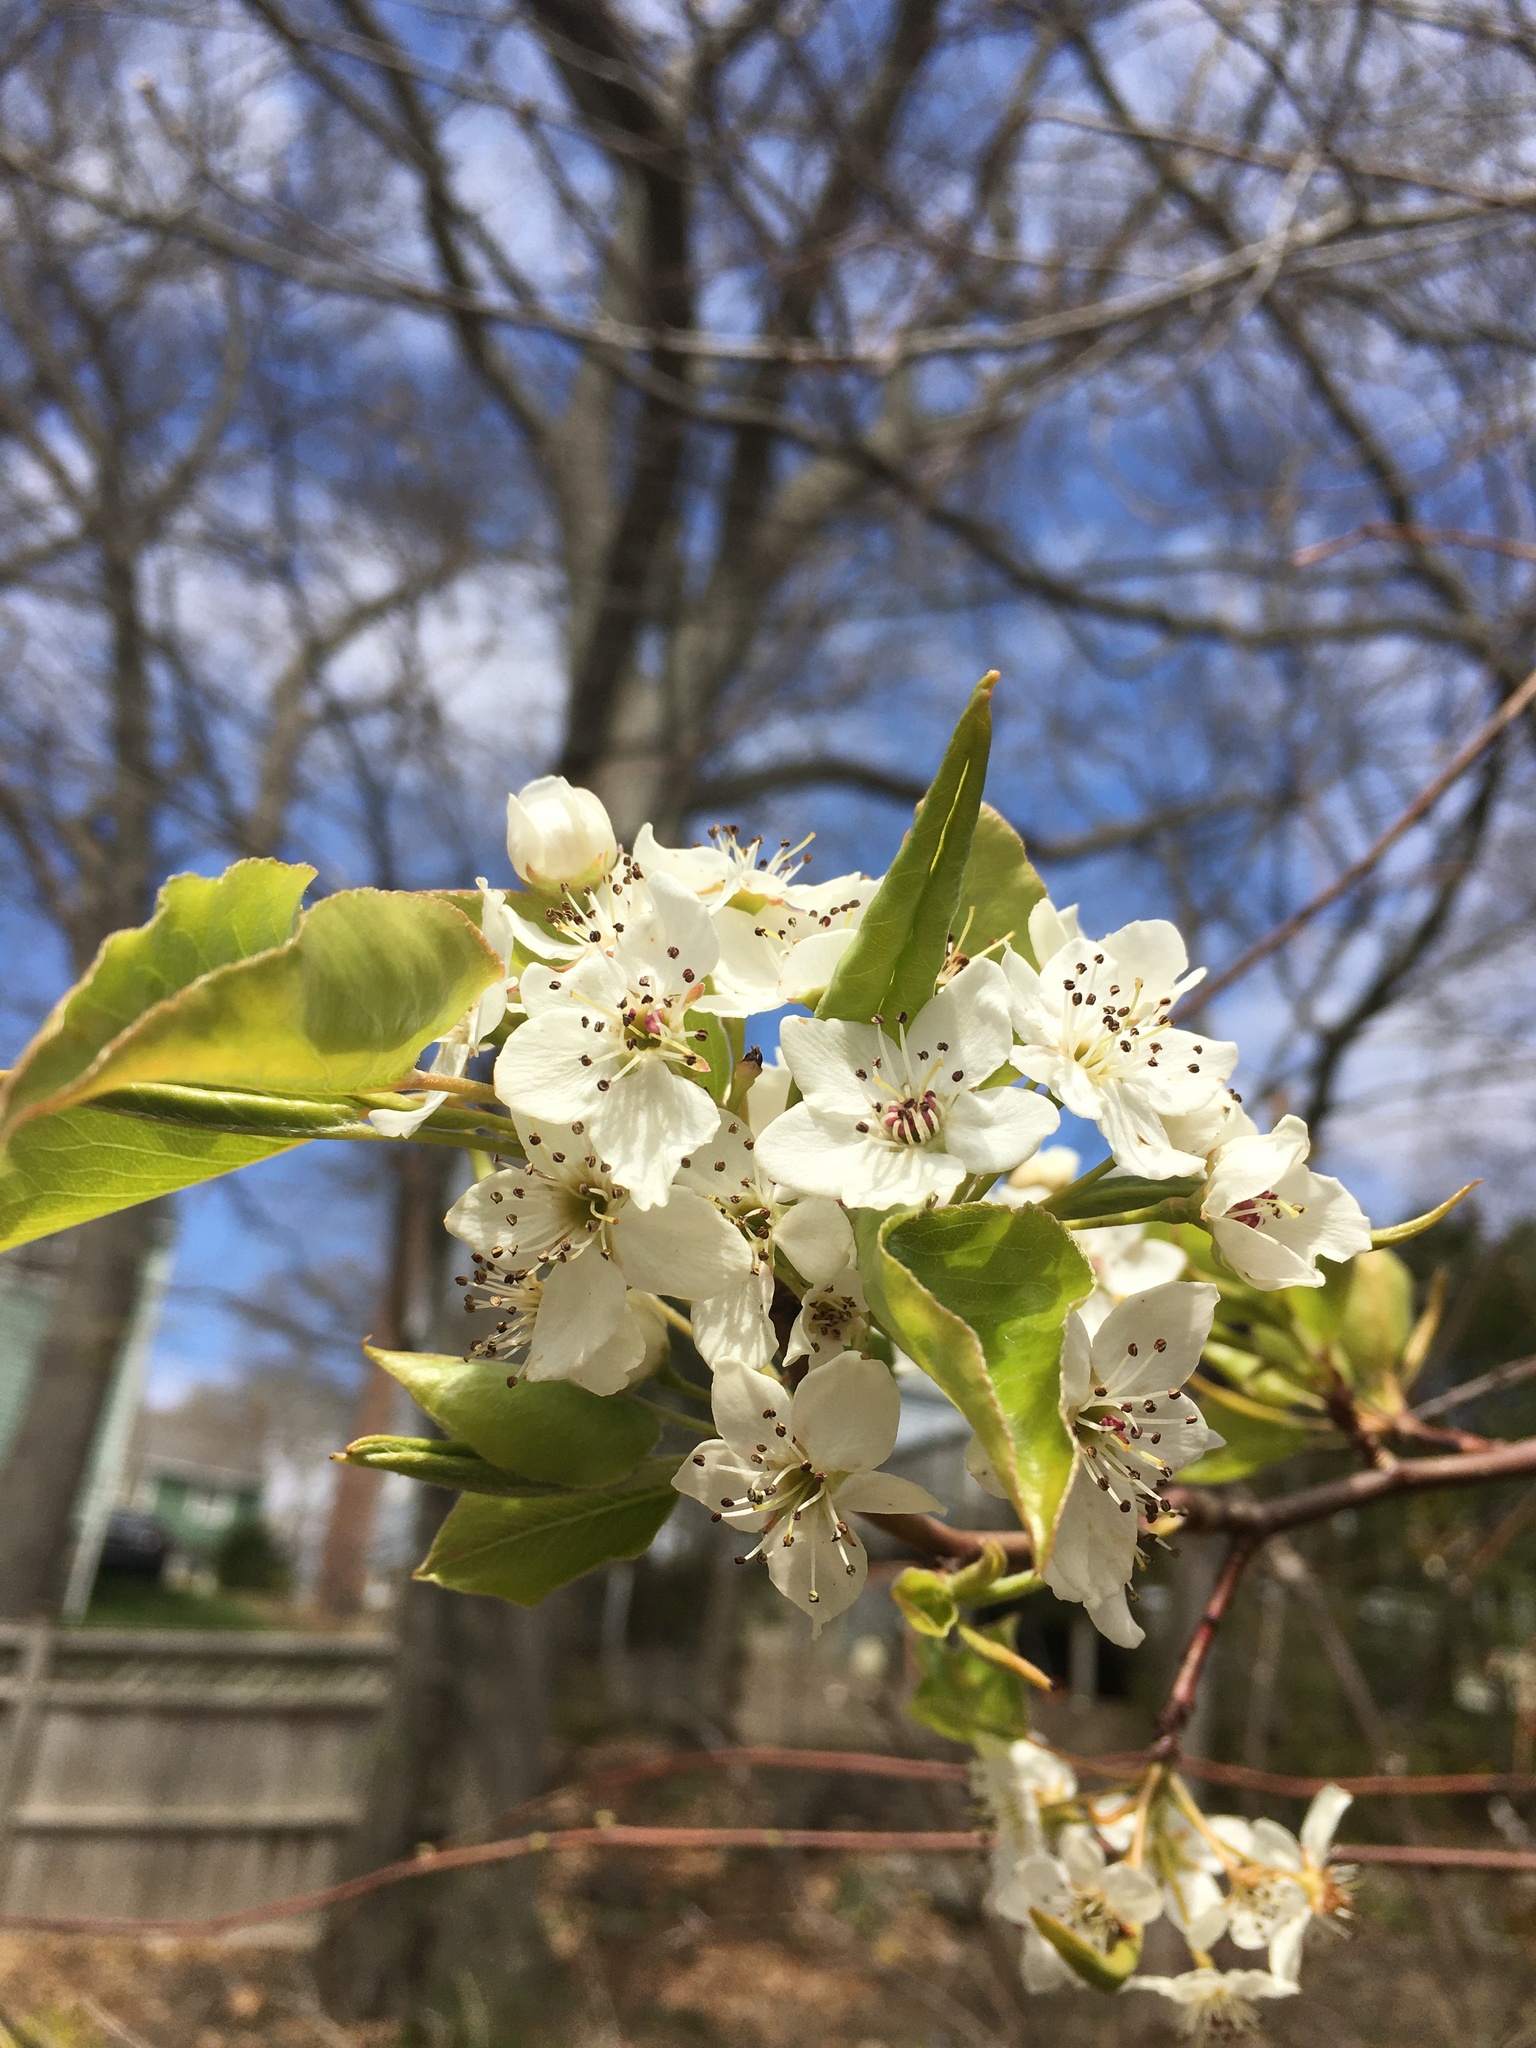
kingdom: Plantae
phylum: Tracheophyta
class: Magnoliopsida
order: Rosales
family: Rosaceae
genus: Pyrus
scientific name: Pyrus calleryana
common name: Callery pear
